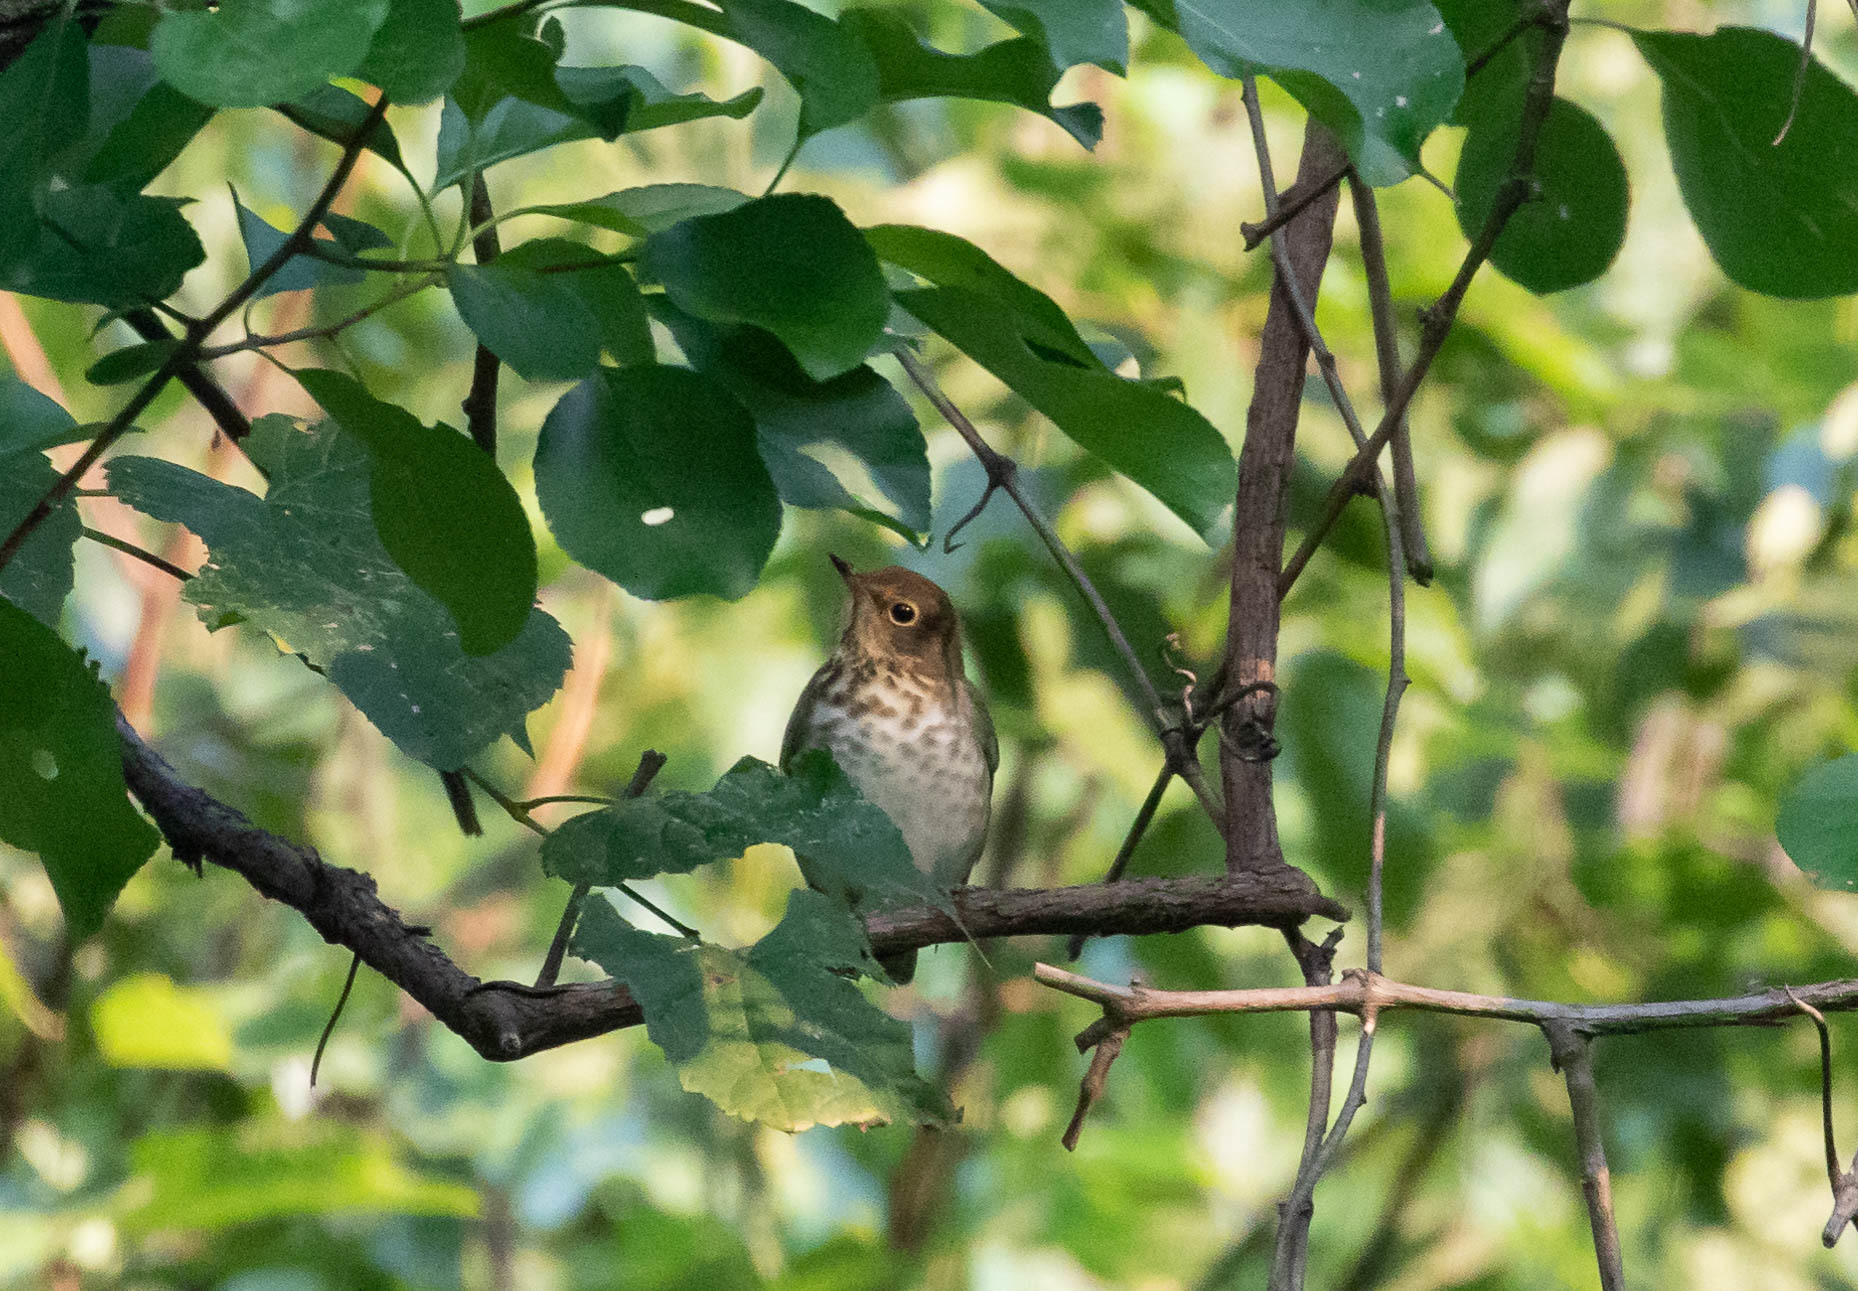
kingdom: Animalia
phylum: Chordata
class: Aves
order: Passeriformes
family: Turdidae
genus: Catharus
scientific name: Catharus ustulatus
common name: Swainson's thrush
